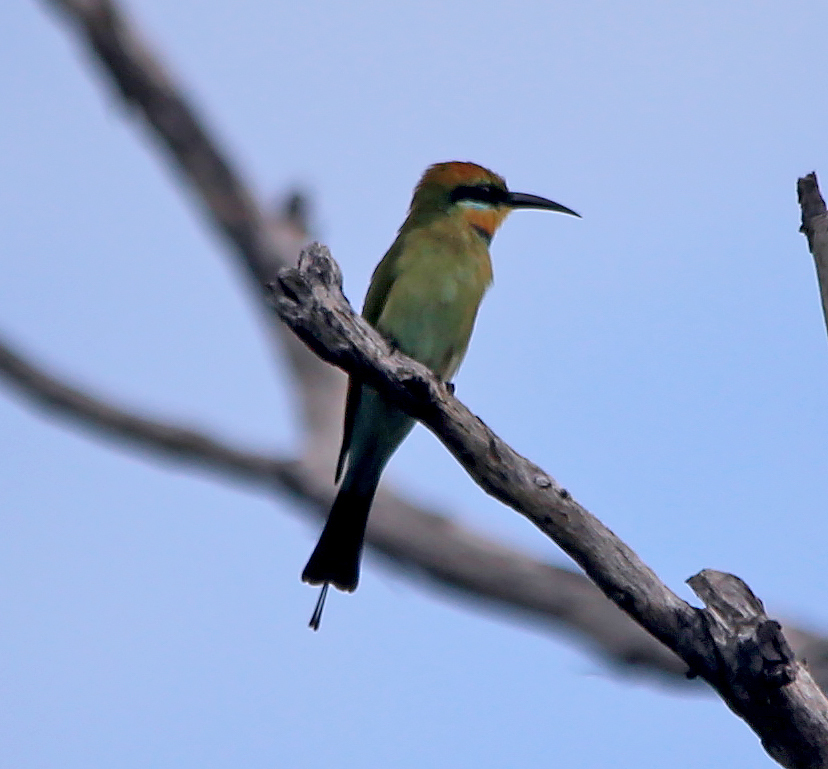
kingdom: Animalia
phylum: Chordata
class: Aves
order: Coraciiformes
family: Meropidae
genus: Merops
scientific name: Merops ornatus
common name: Rainbow bee-eater
